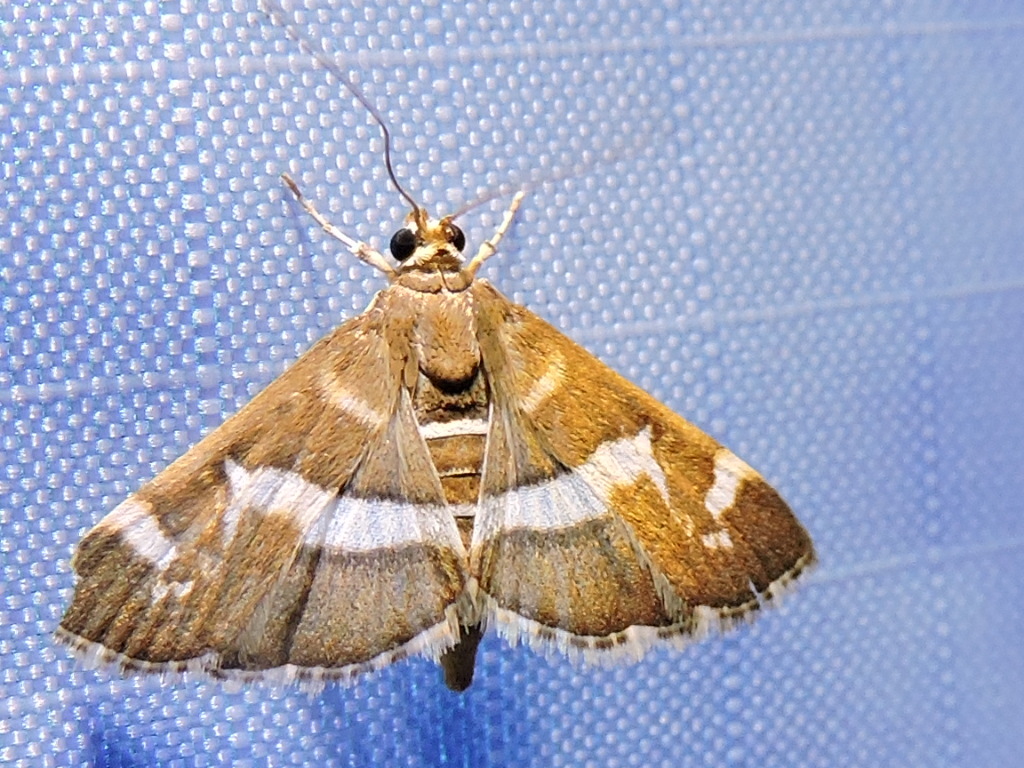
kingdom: Animalia
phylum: Arthropoda
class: Insecta
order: Lepidoptera
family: Crambidae
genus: Spoladea
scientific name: Spoladea recurvalis
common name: Beet webworm moth
